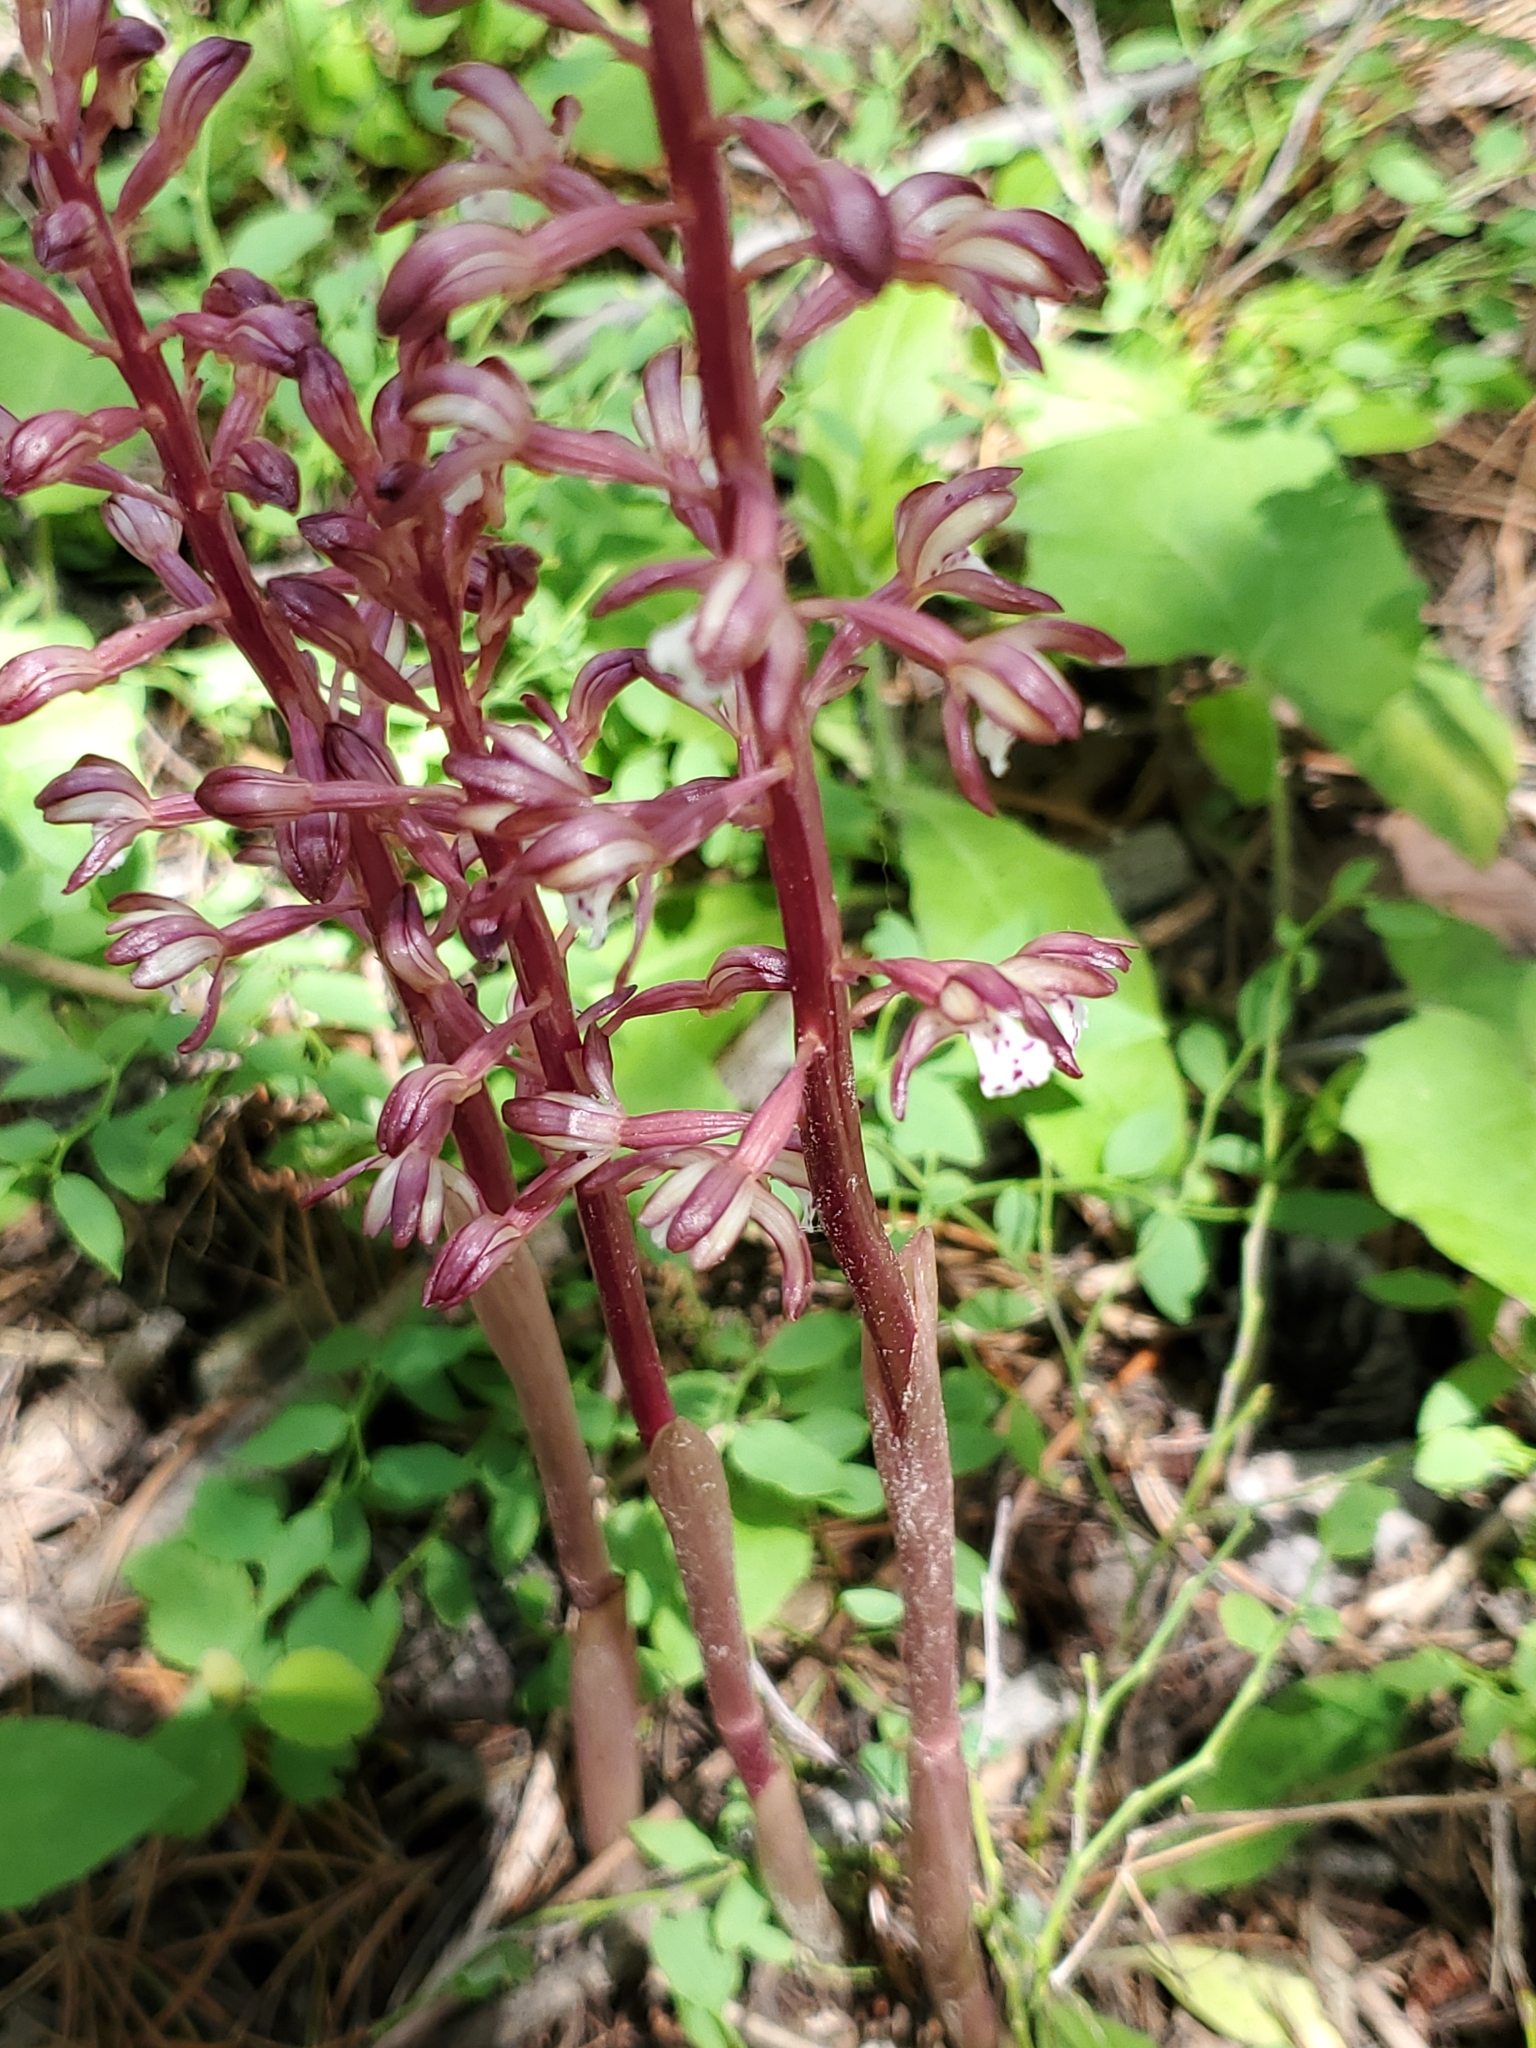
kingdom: Plantae
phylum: Tracheophyta
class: Liliopsida
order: Asparagales
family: Orchidaceae
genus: Corallorhiza
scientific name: Corallorhiza maculata
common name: Spotted coralroot
